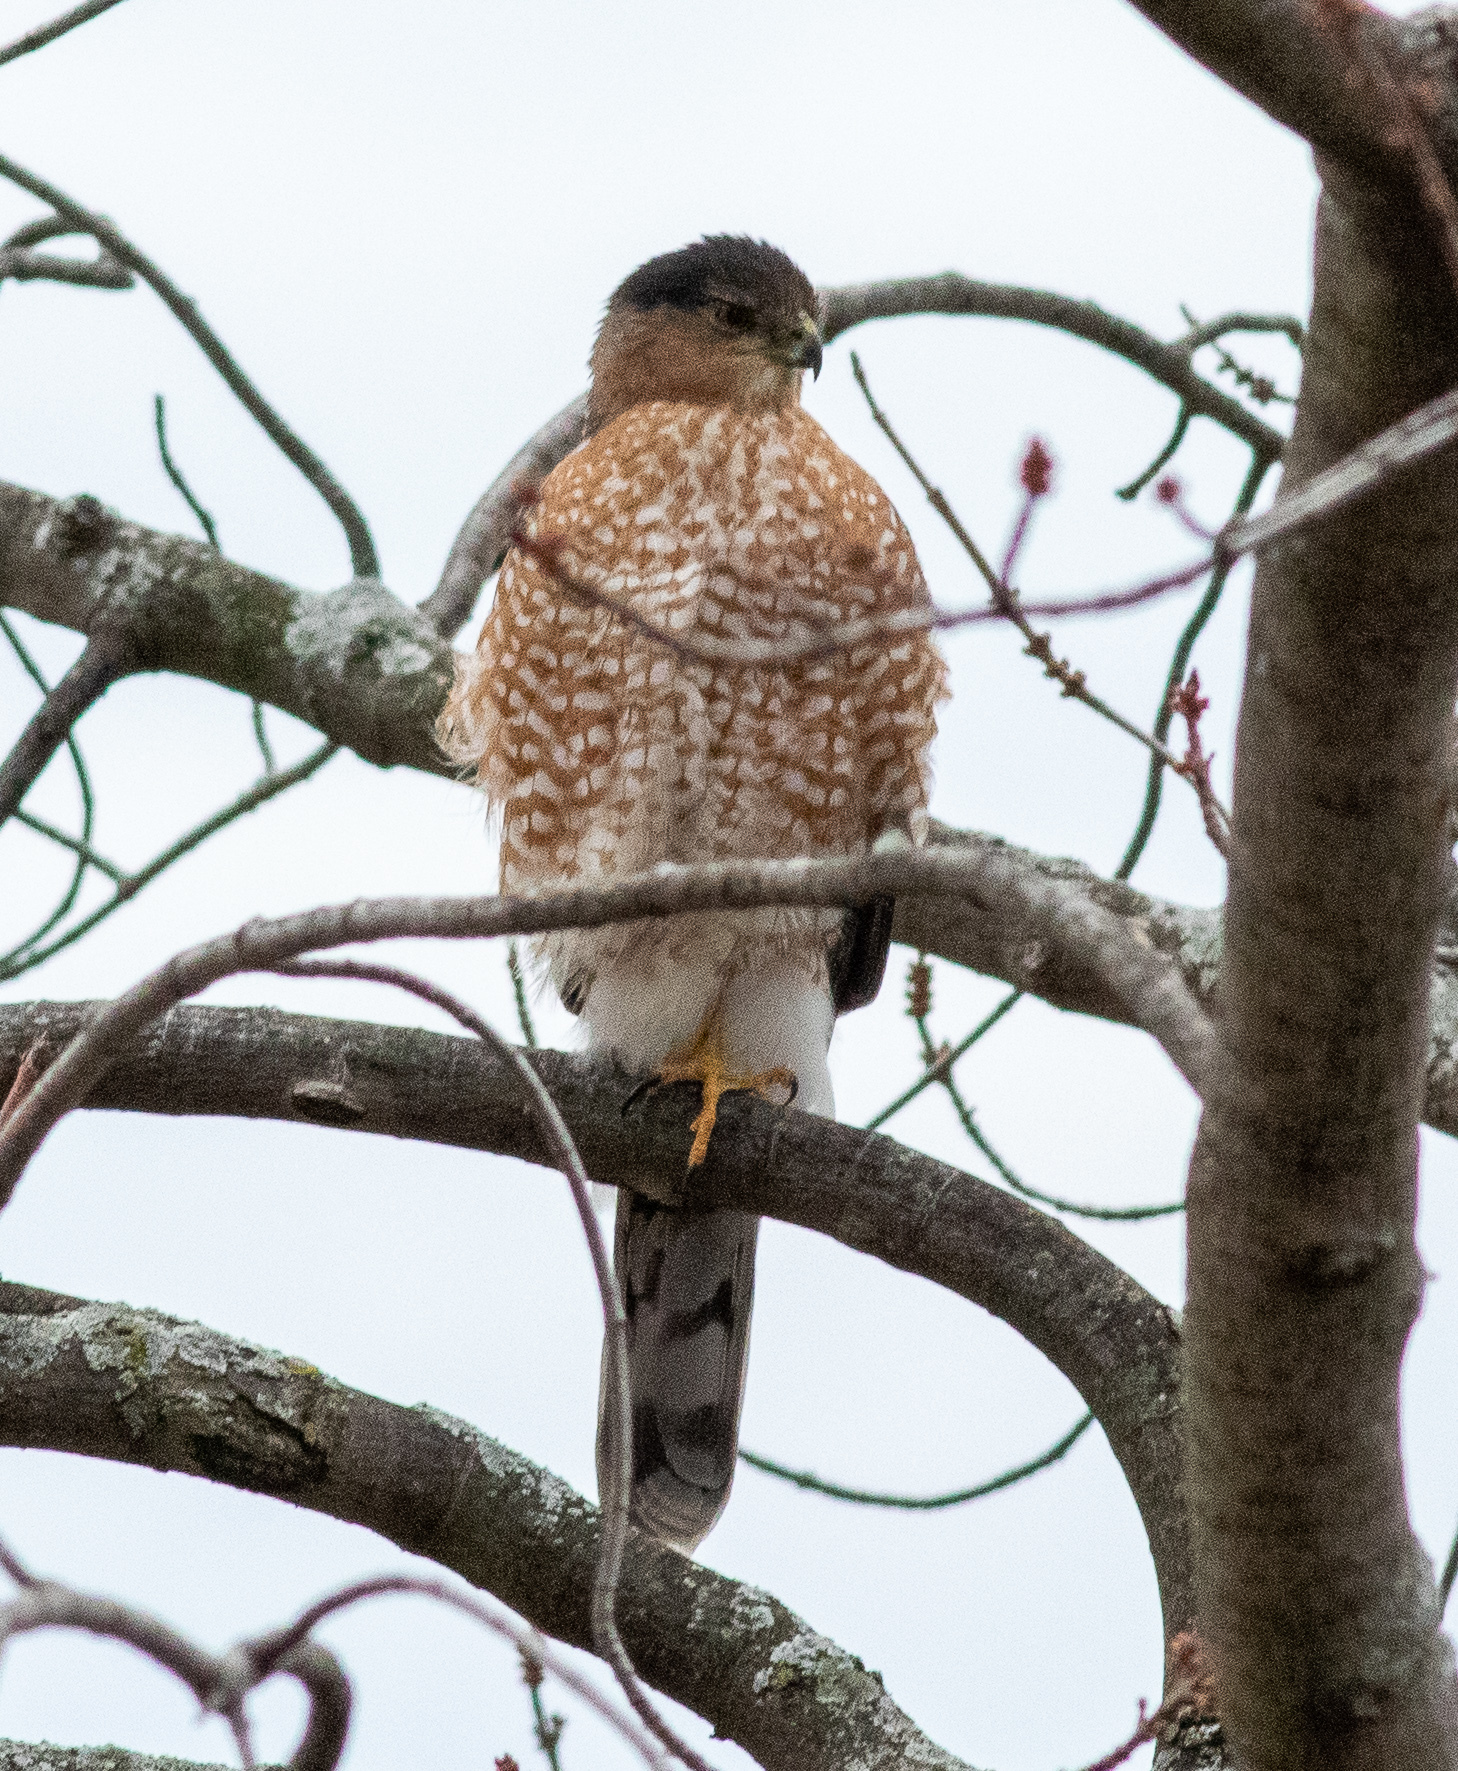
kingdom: Animalia
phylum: Chordata
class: Aves
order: Accipitriformes
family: Accipitridae
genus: Accipiter
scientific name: Accipiter cooperii
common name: Cooper's hawk
